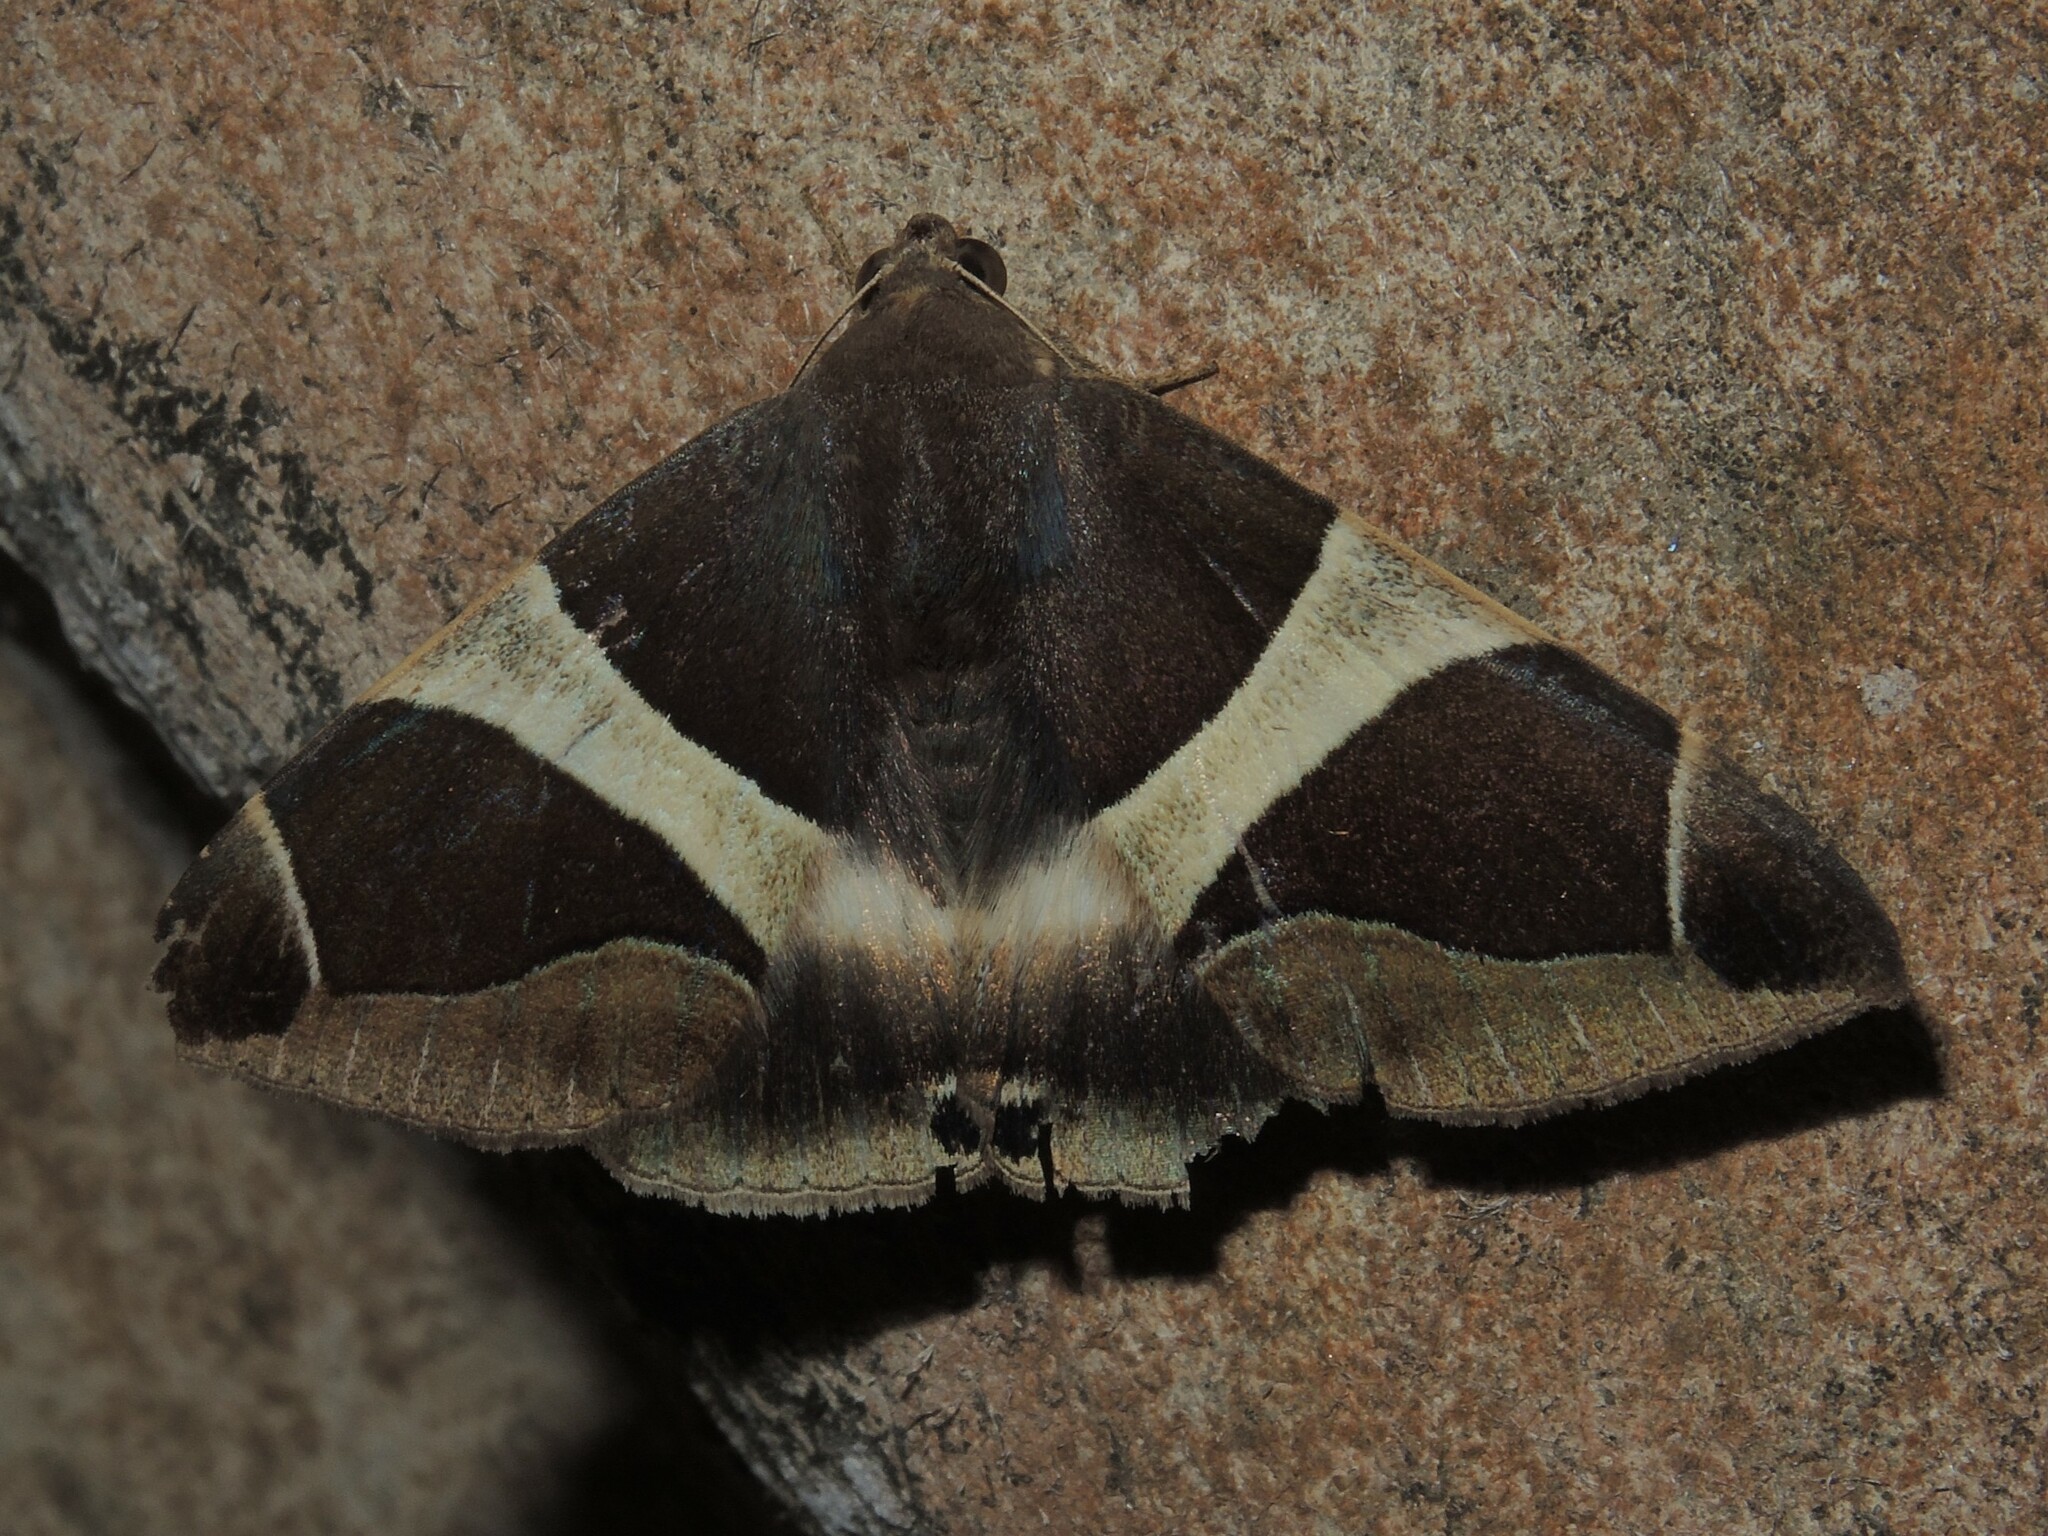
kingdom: Animalia
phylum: Arthropoda
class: Insecta
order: Lepidoptera
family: Erebidae
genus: Bastilla
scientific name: Bastilla crameri
